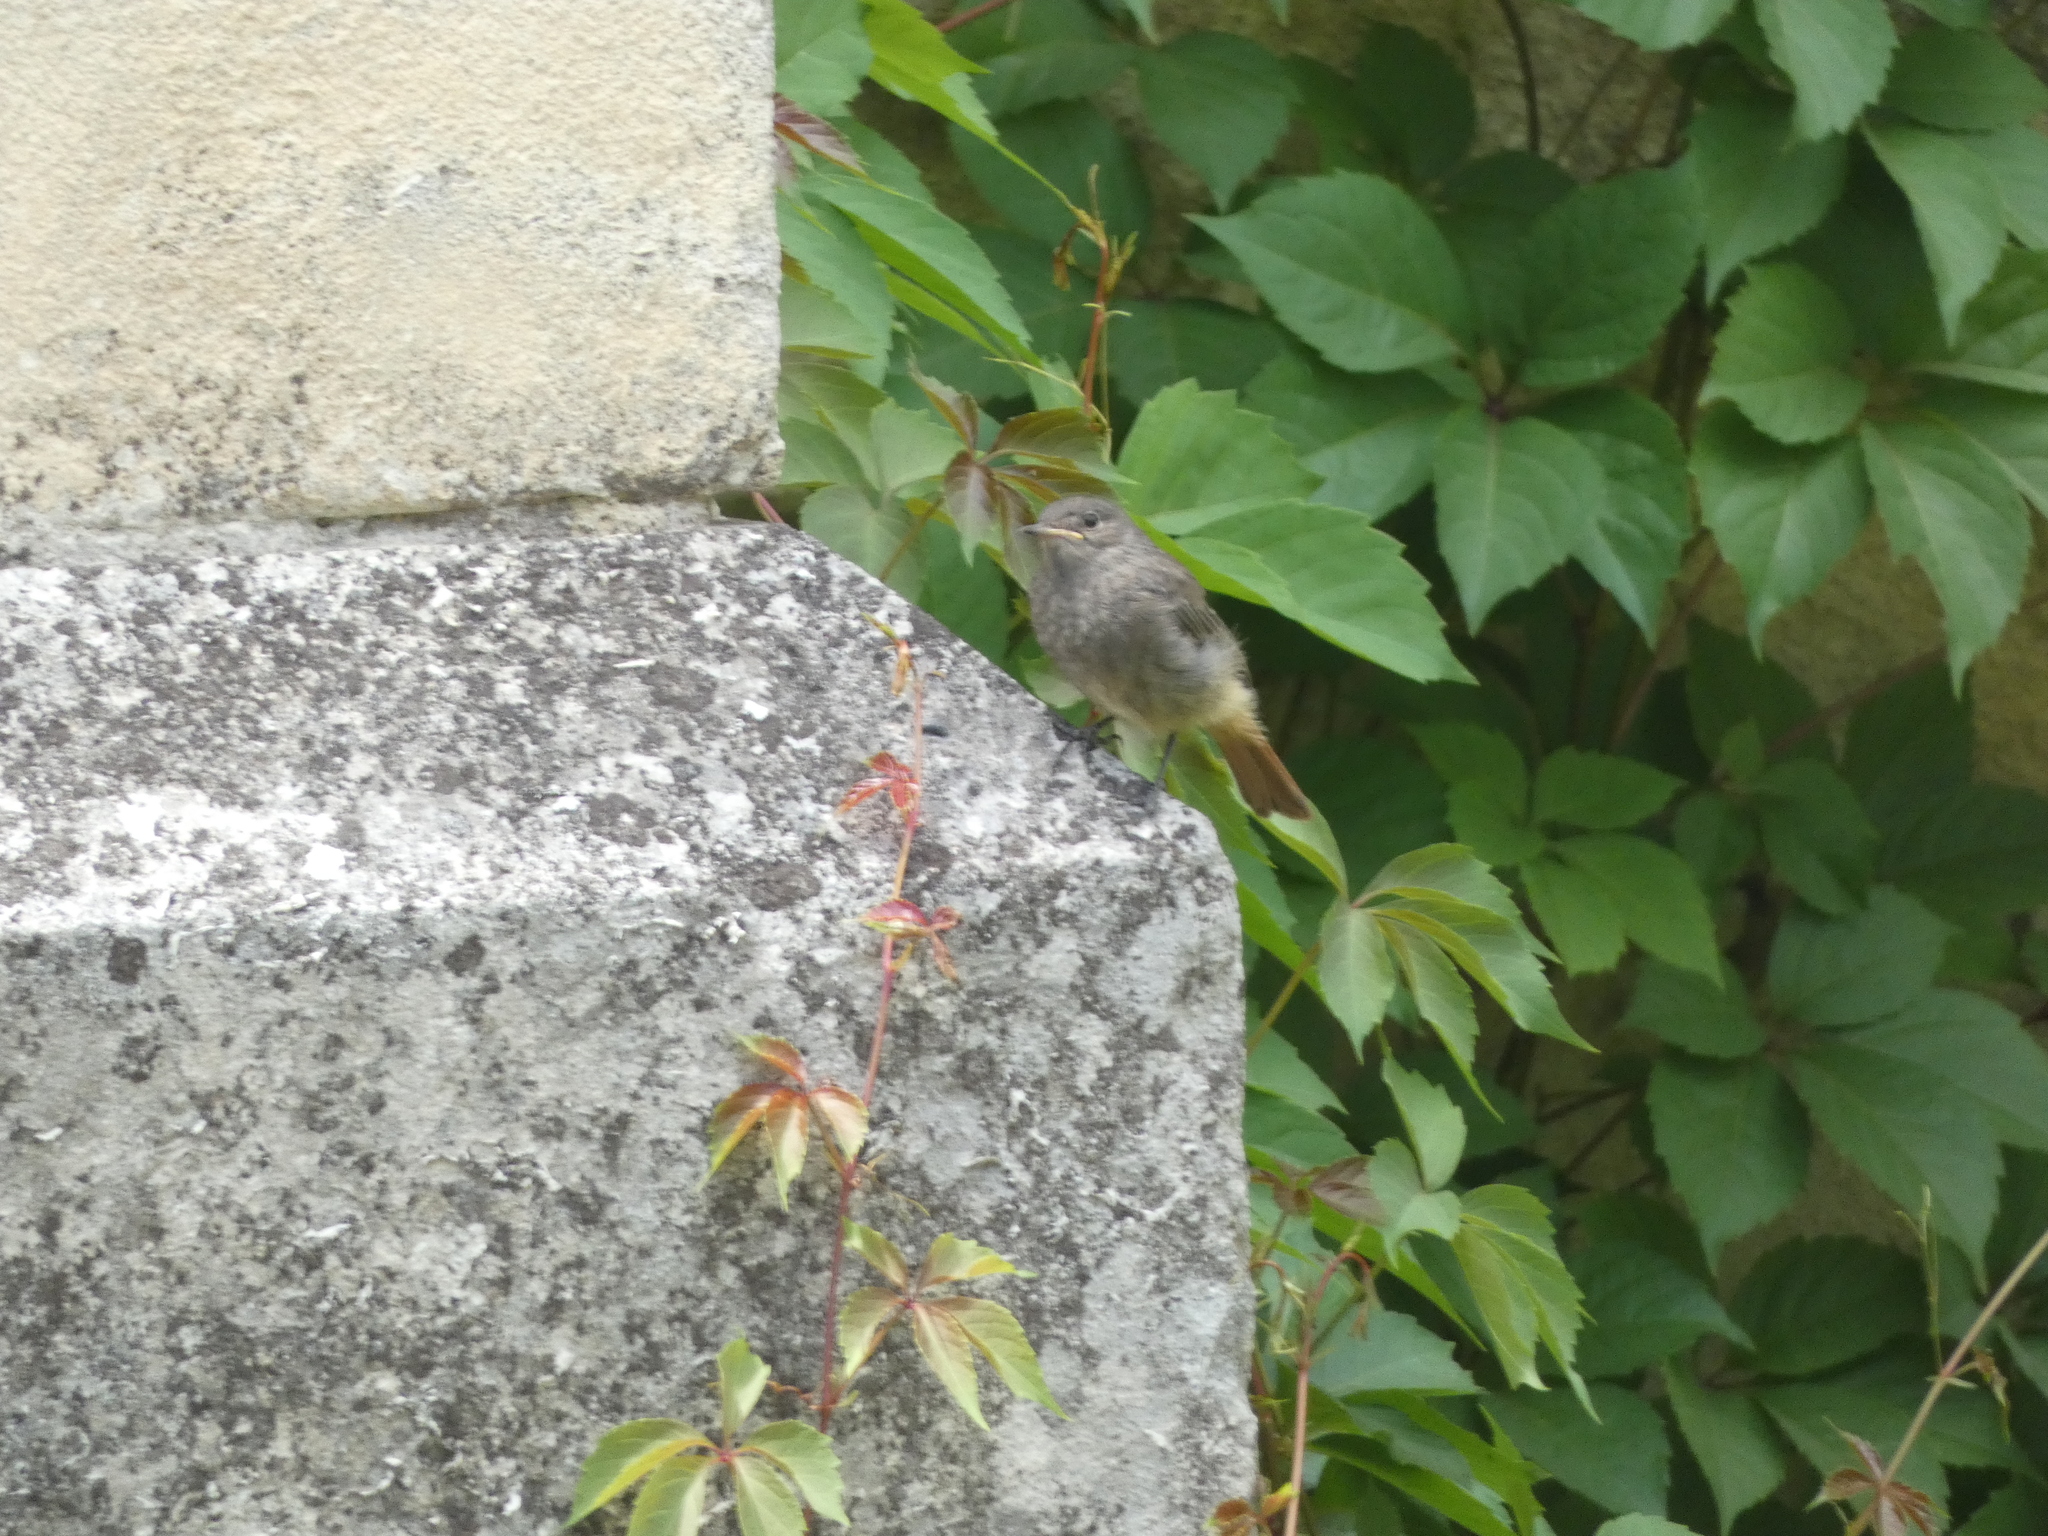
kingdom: Animalia
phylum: Chordata
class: Aves
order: Passeriformes
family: Muscicapidae
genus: Phoenicurus
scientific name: Phoenicurus ochruros
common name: Black redstart
